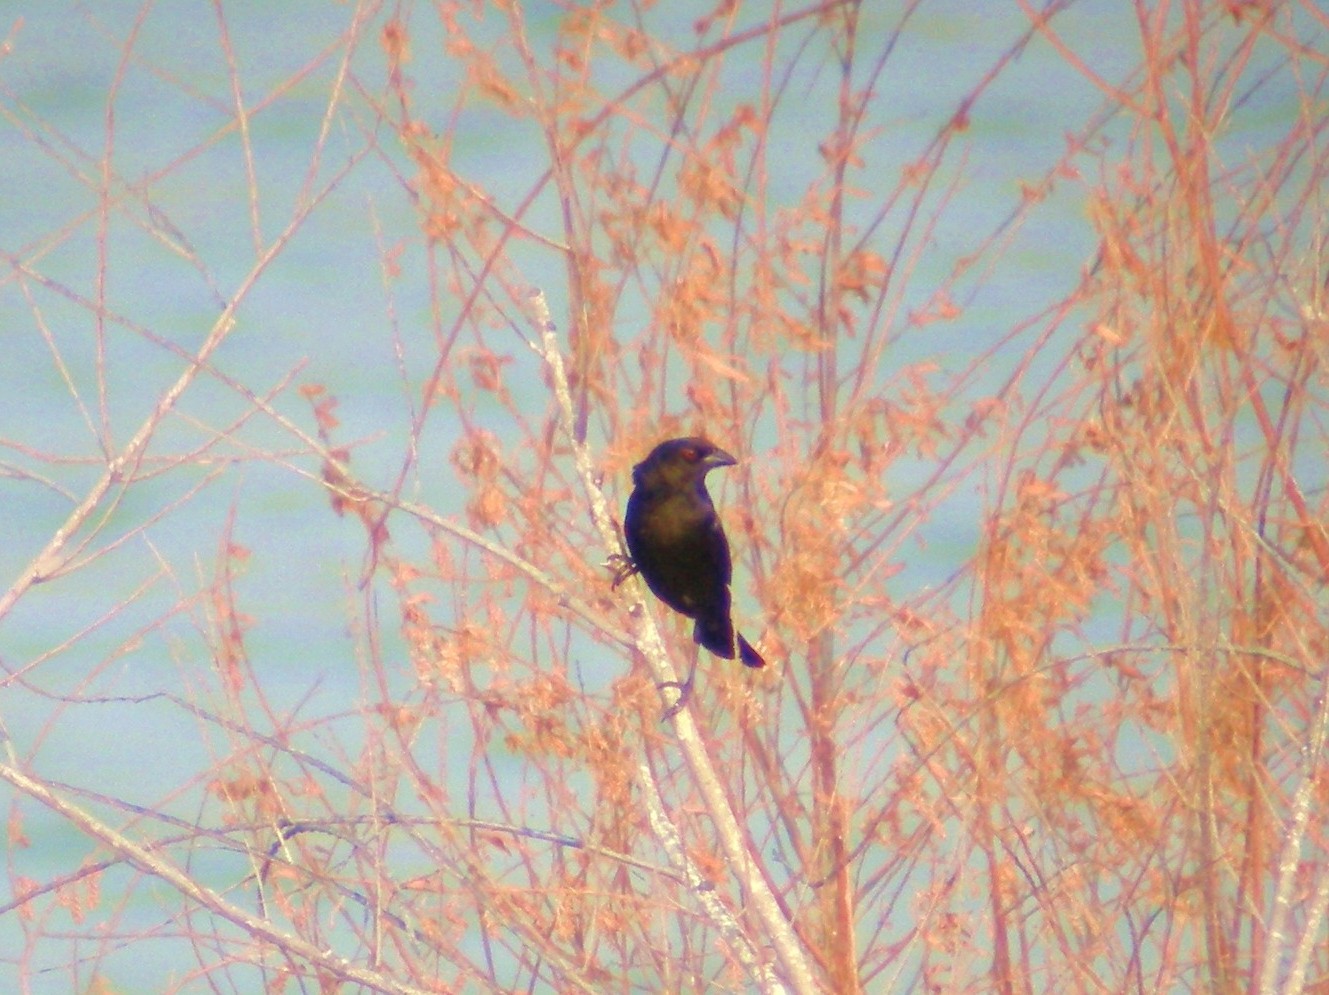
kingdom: Animalia
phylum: Chordata
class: Aves
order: Passeriformes
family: Icteridae
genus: Molothrus
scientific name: Molothrus aeneus
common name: Bronzed cowbird
